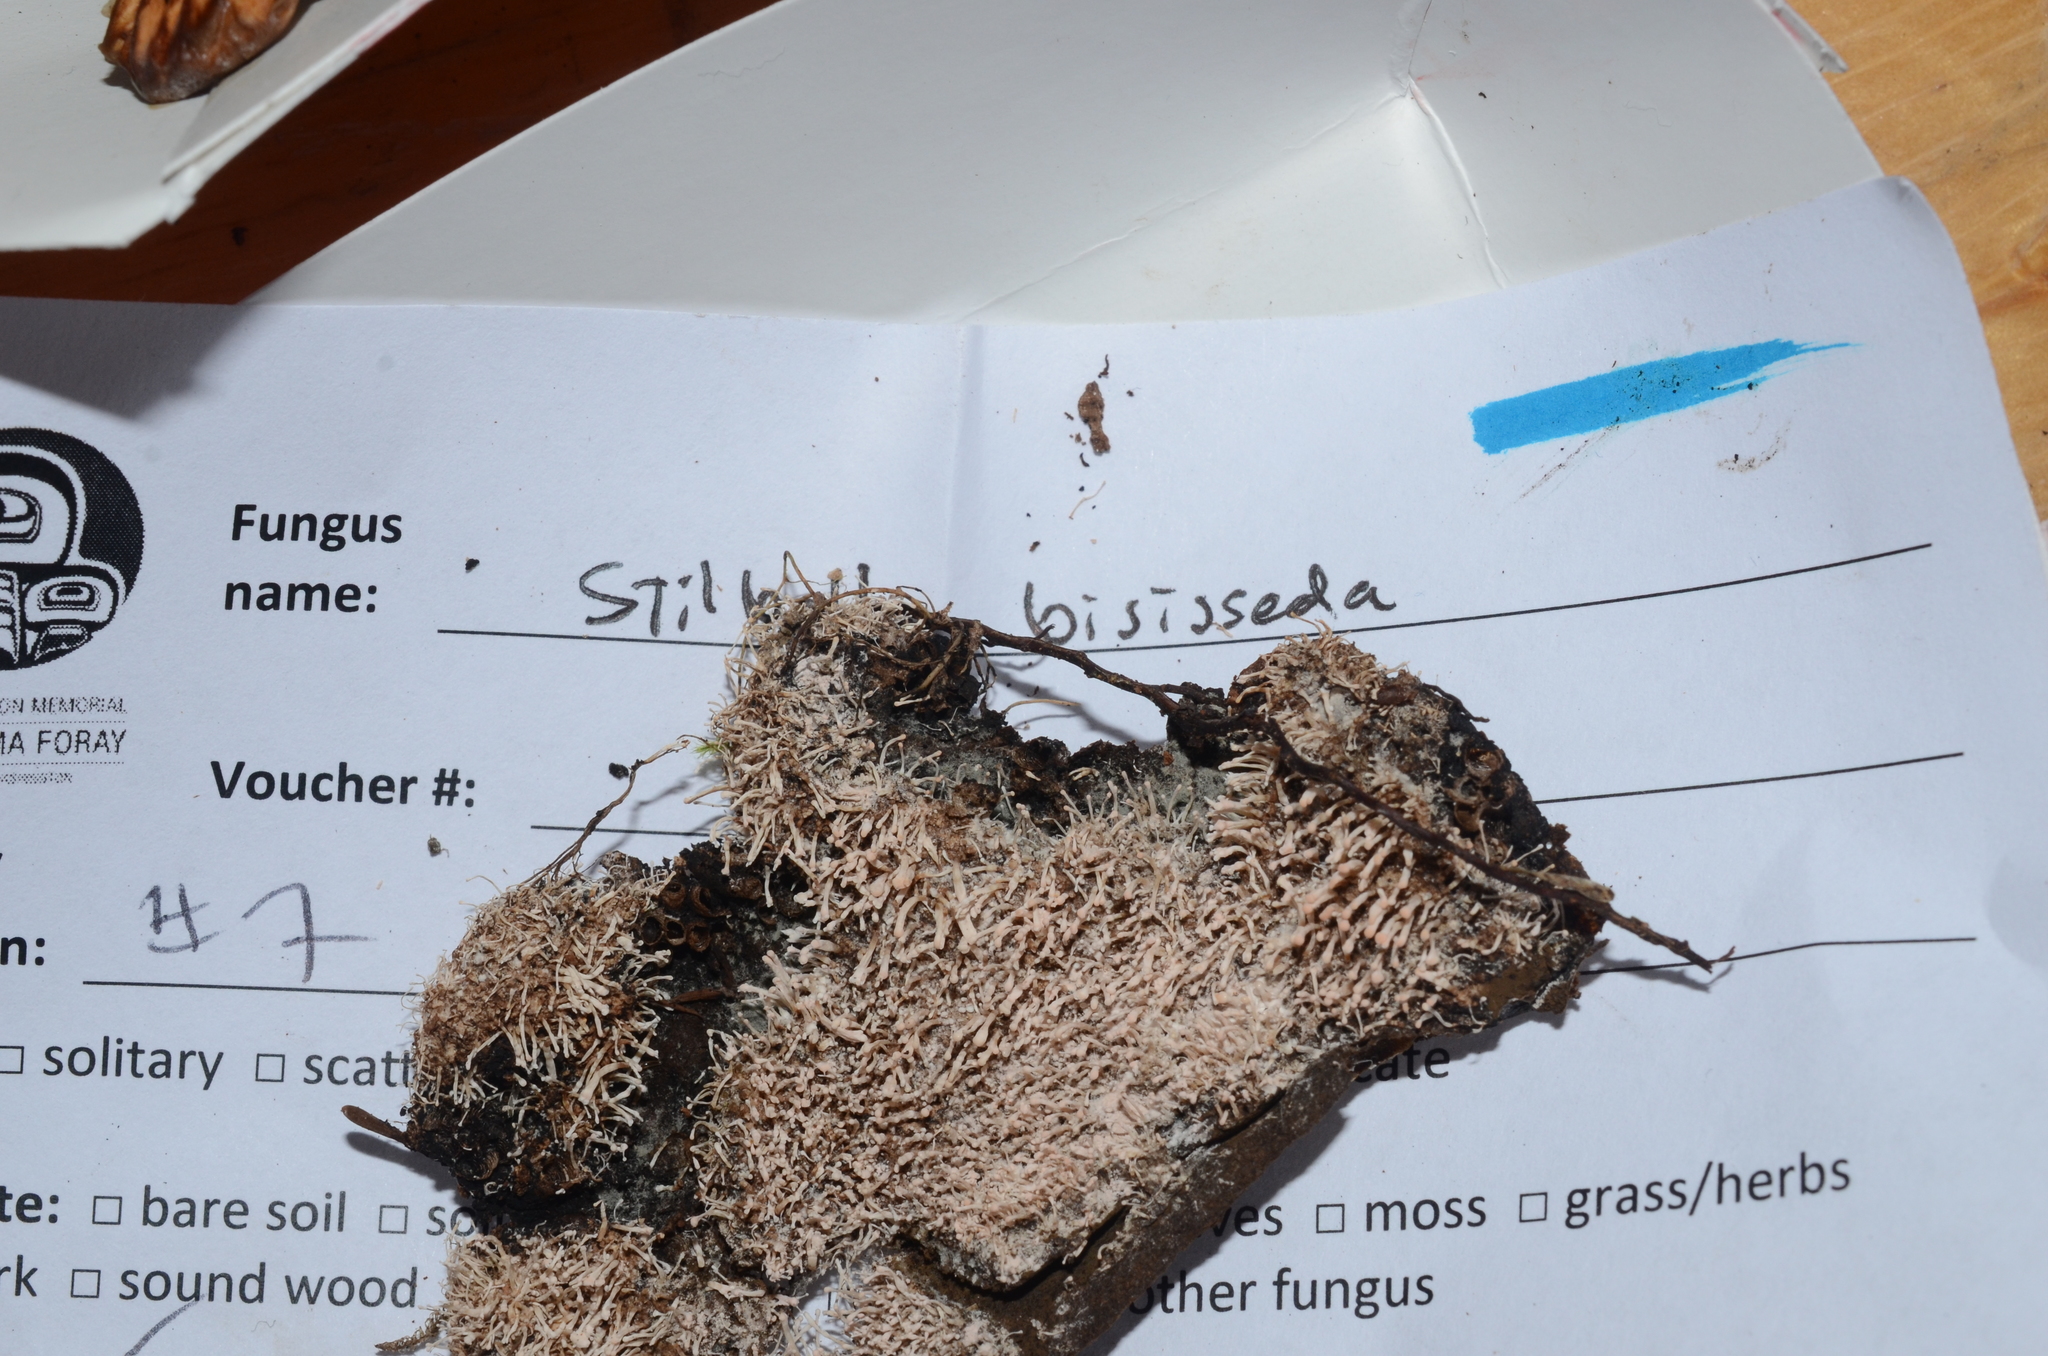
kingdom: Fungi
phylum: Ascomycota
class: Sordariomycetes
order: Hypocreales
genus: Stilbella
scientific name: Stilbella byssiseda
